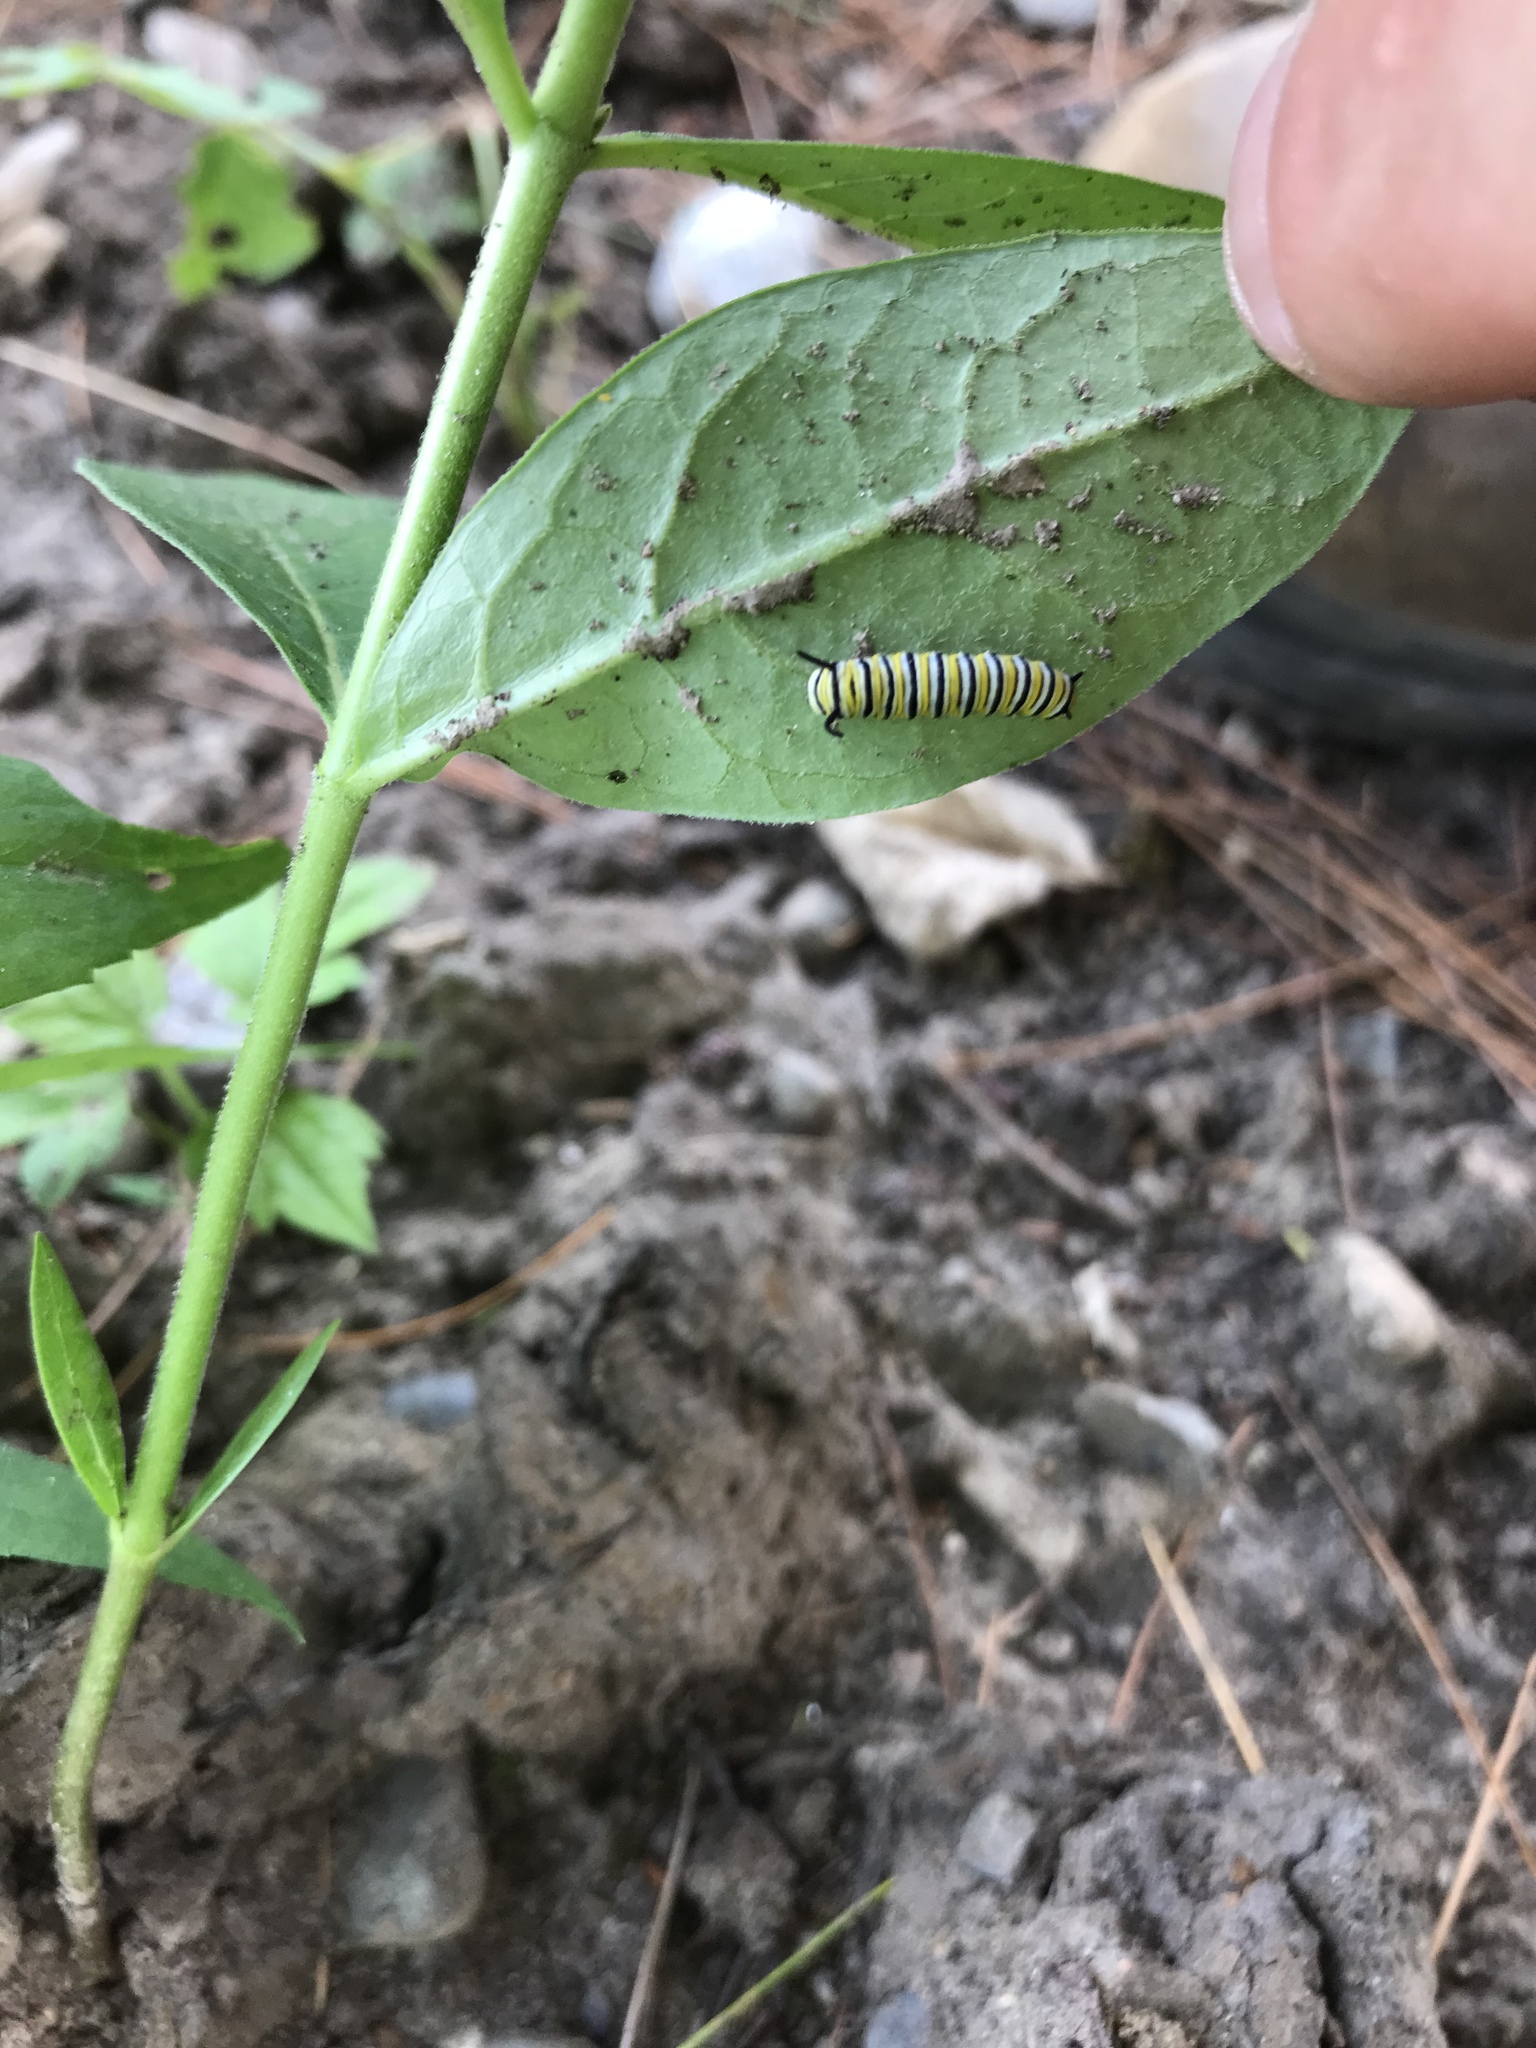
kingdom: Animalia
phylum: Arthropoda
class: Insecta
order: Lepidoptera
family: Nymphalidae
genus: Danaus
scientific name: Danaus plexippus
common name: Monarch
